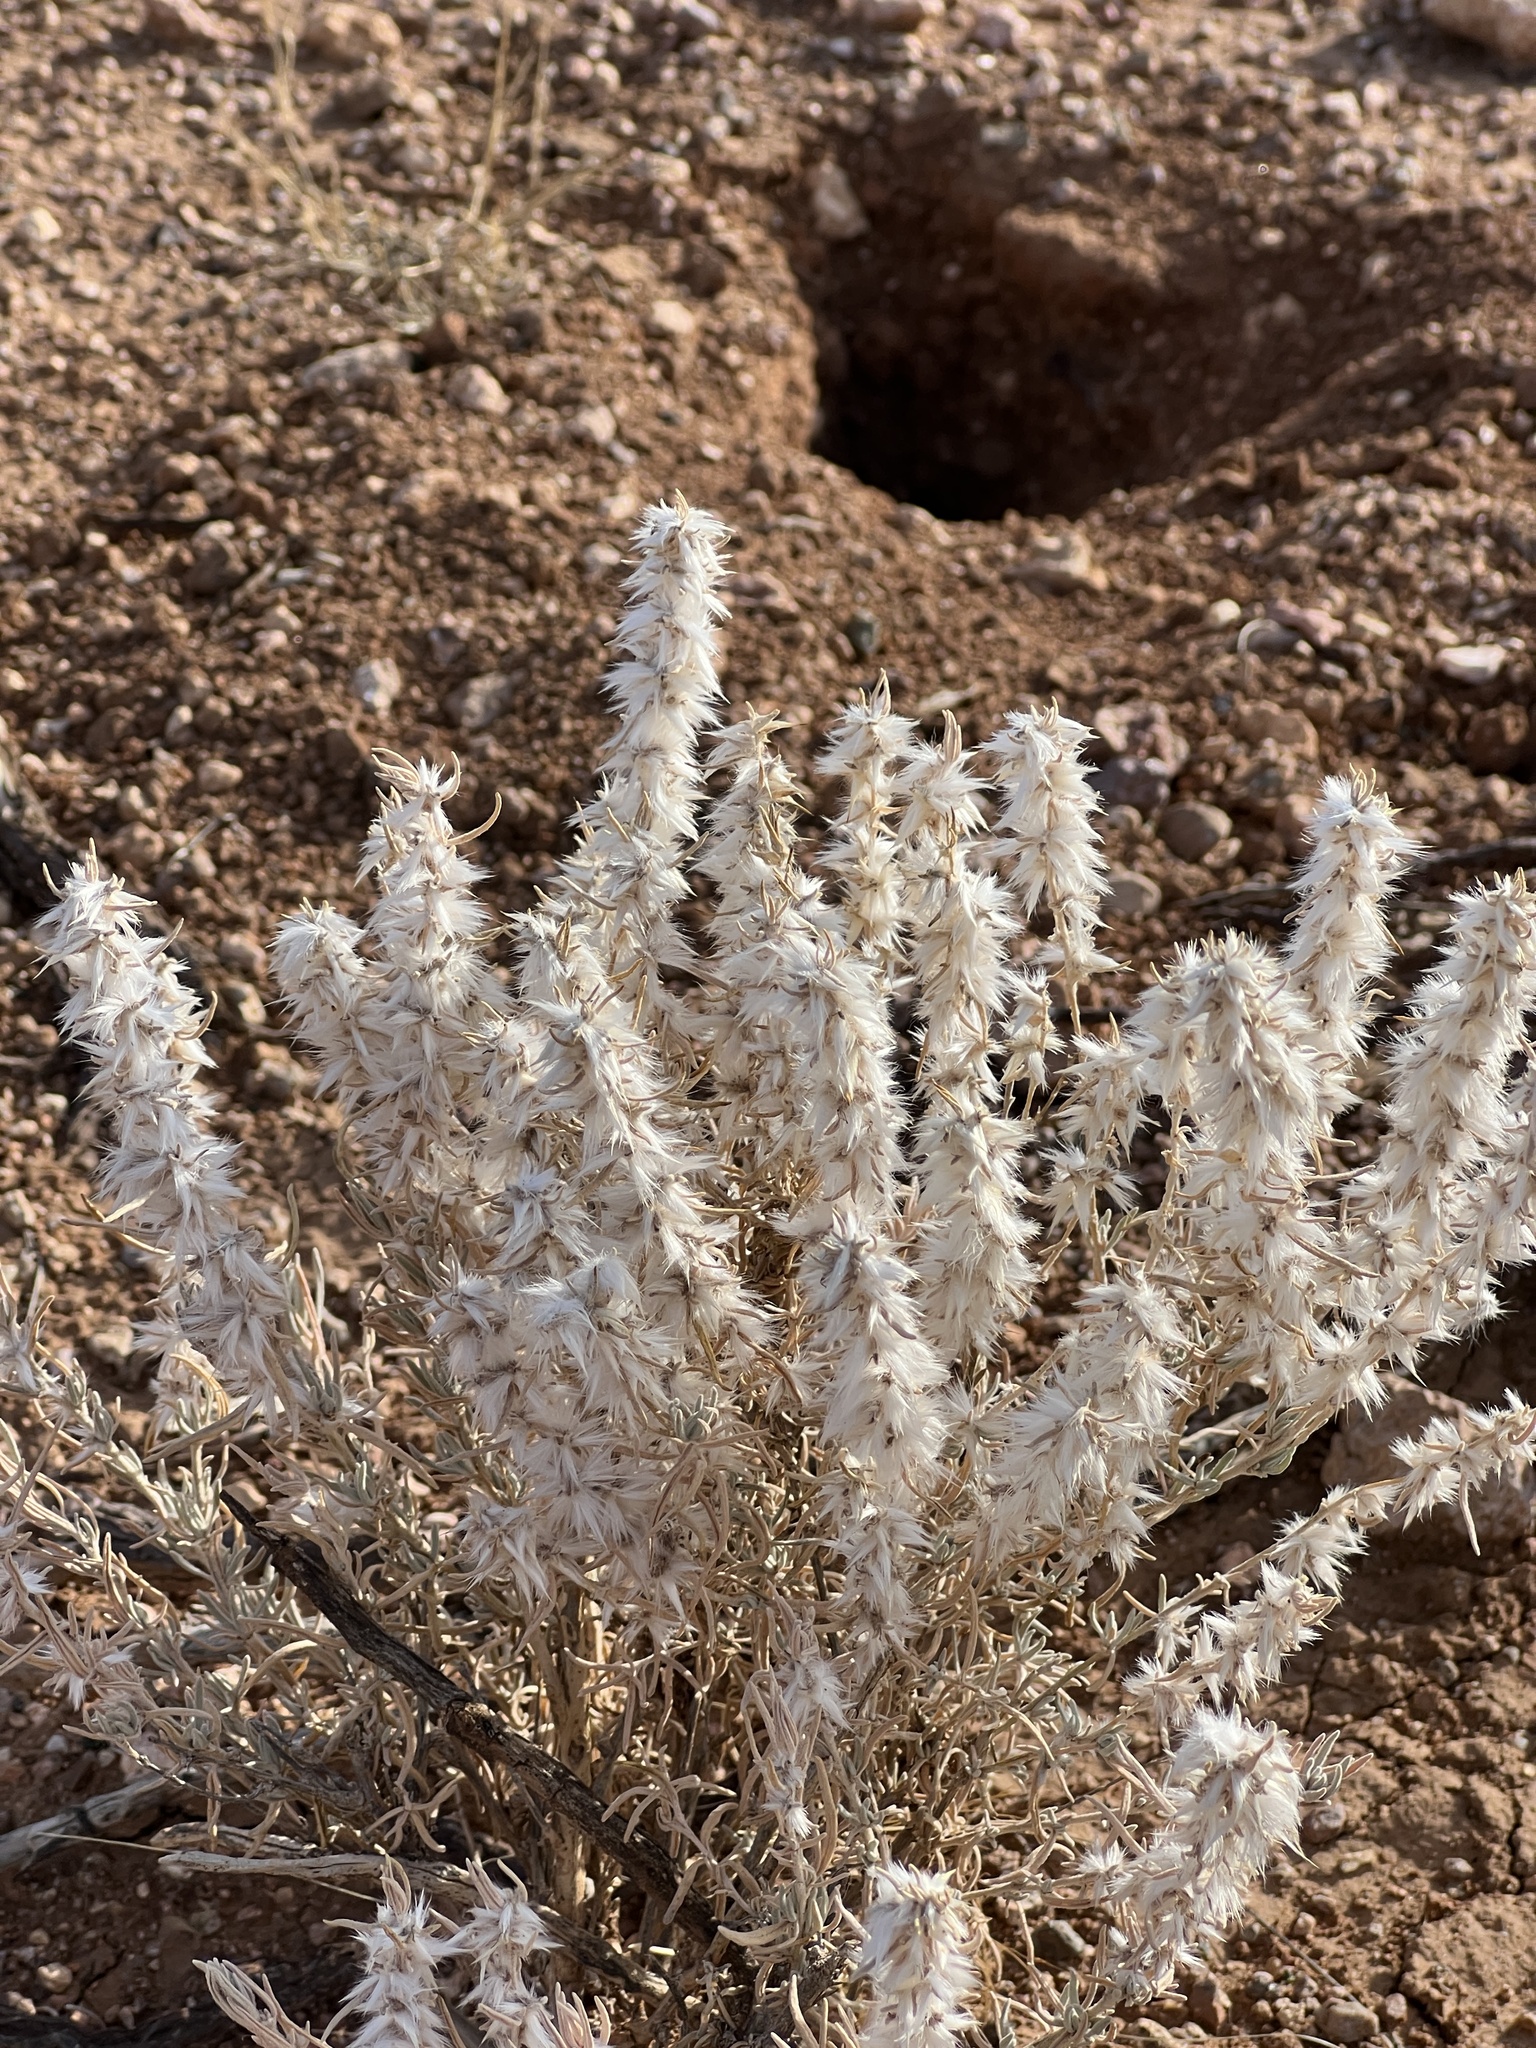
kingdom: Plantae
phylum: Tracheophyta
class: Magnoliopsida
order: Caryophyllales
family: Amaranthaceae
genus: Krascheninnikovia
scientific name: Krascheninnikovia lanata
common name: Winterfat
